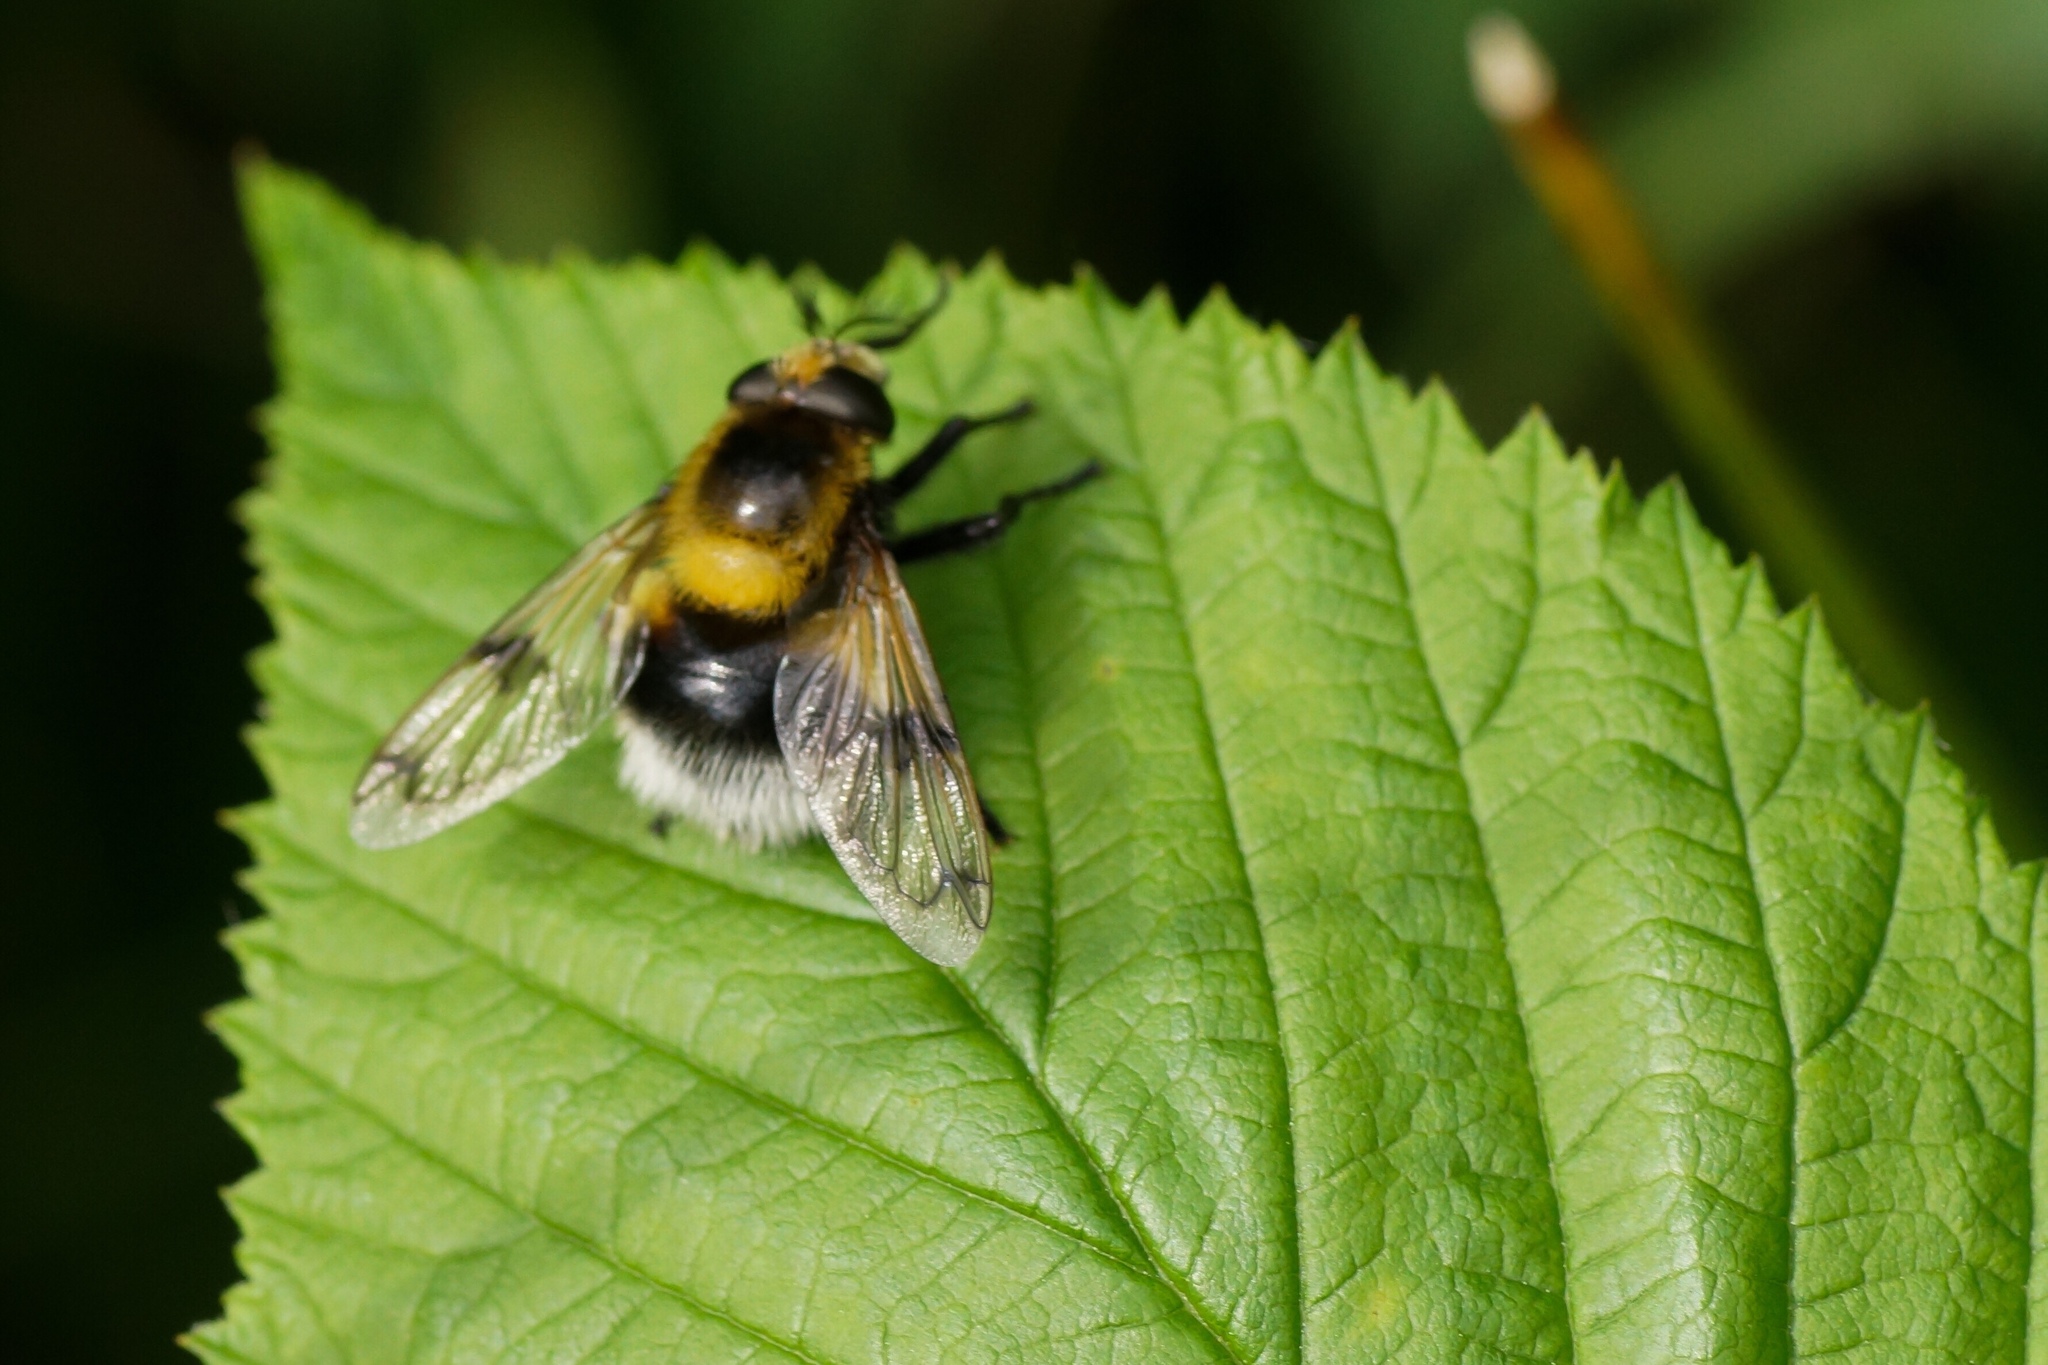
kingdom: Animalia
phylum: Arthropoda
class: Insecta
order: Diptera
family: Syrphidae
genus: Volucella
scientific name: Volucella bombylans
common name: Bumble bee hover fly
